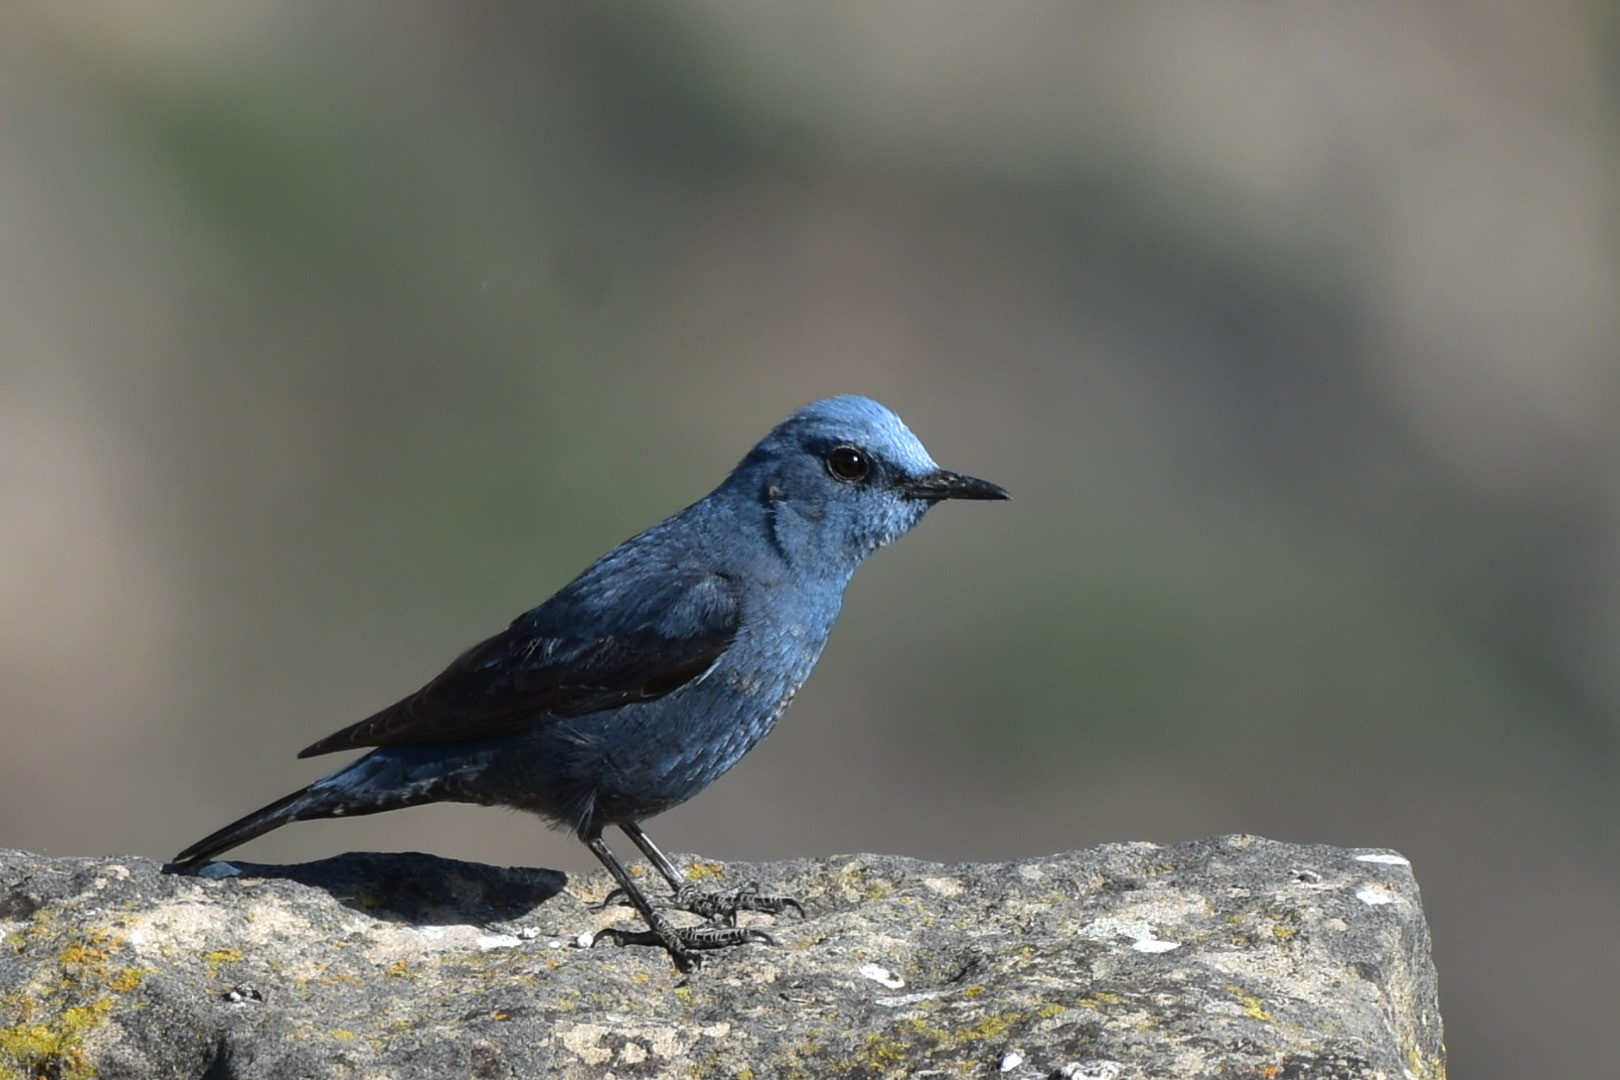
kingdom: Animalia
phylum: Chordata
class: Aves
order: Passeriformes
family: Muscicapidae
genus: Monticola
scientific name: Monticola solitarius
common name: Blue rock thrush
